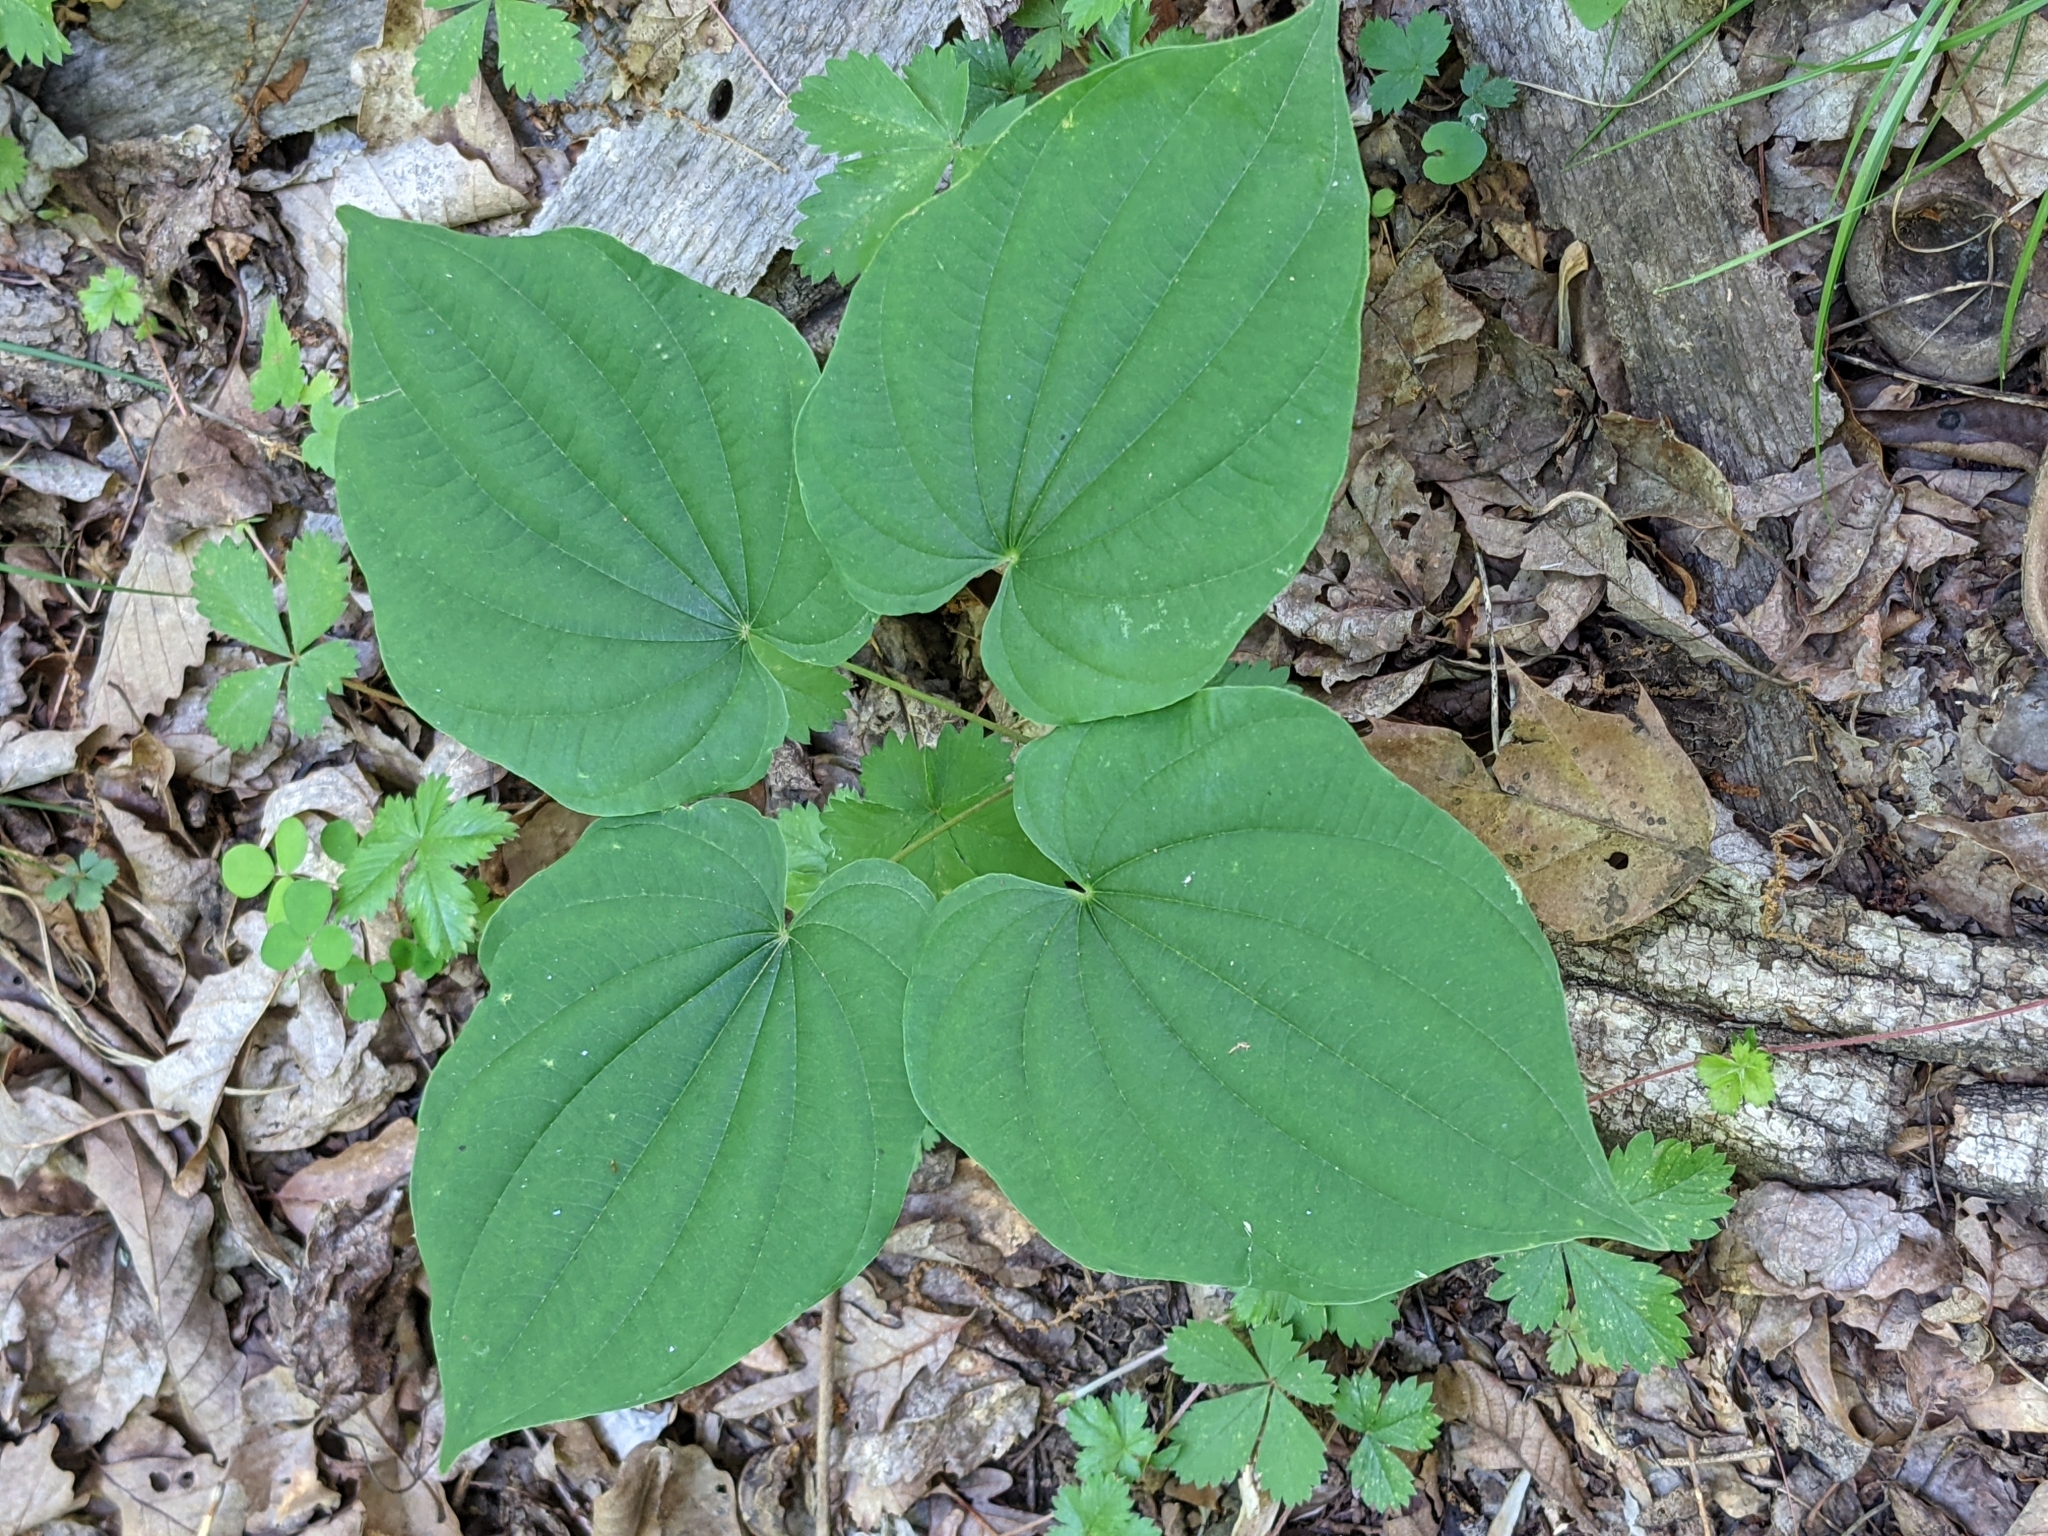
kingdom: Plantae
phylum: Tracheophyta
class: Liliopsida
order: Dioscoreales
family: Dioscoreaceae
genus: Dioscorea
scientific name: Dioscorea villosa
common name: Wild yam
